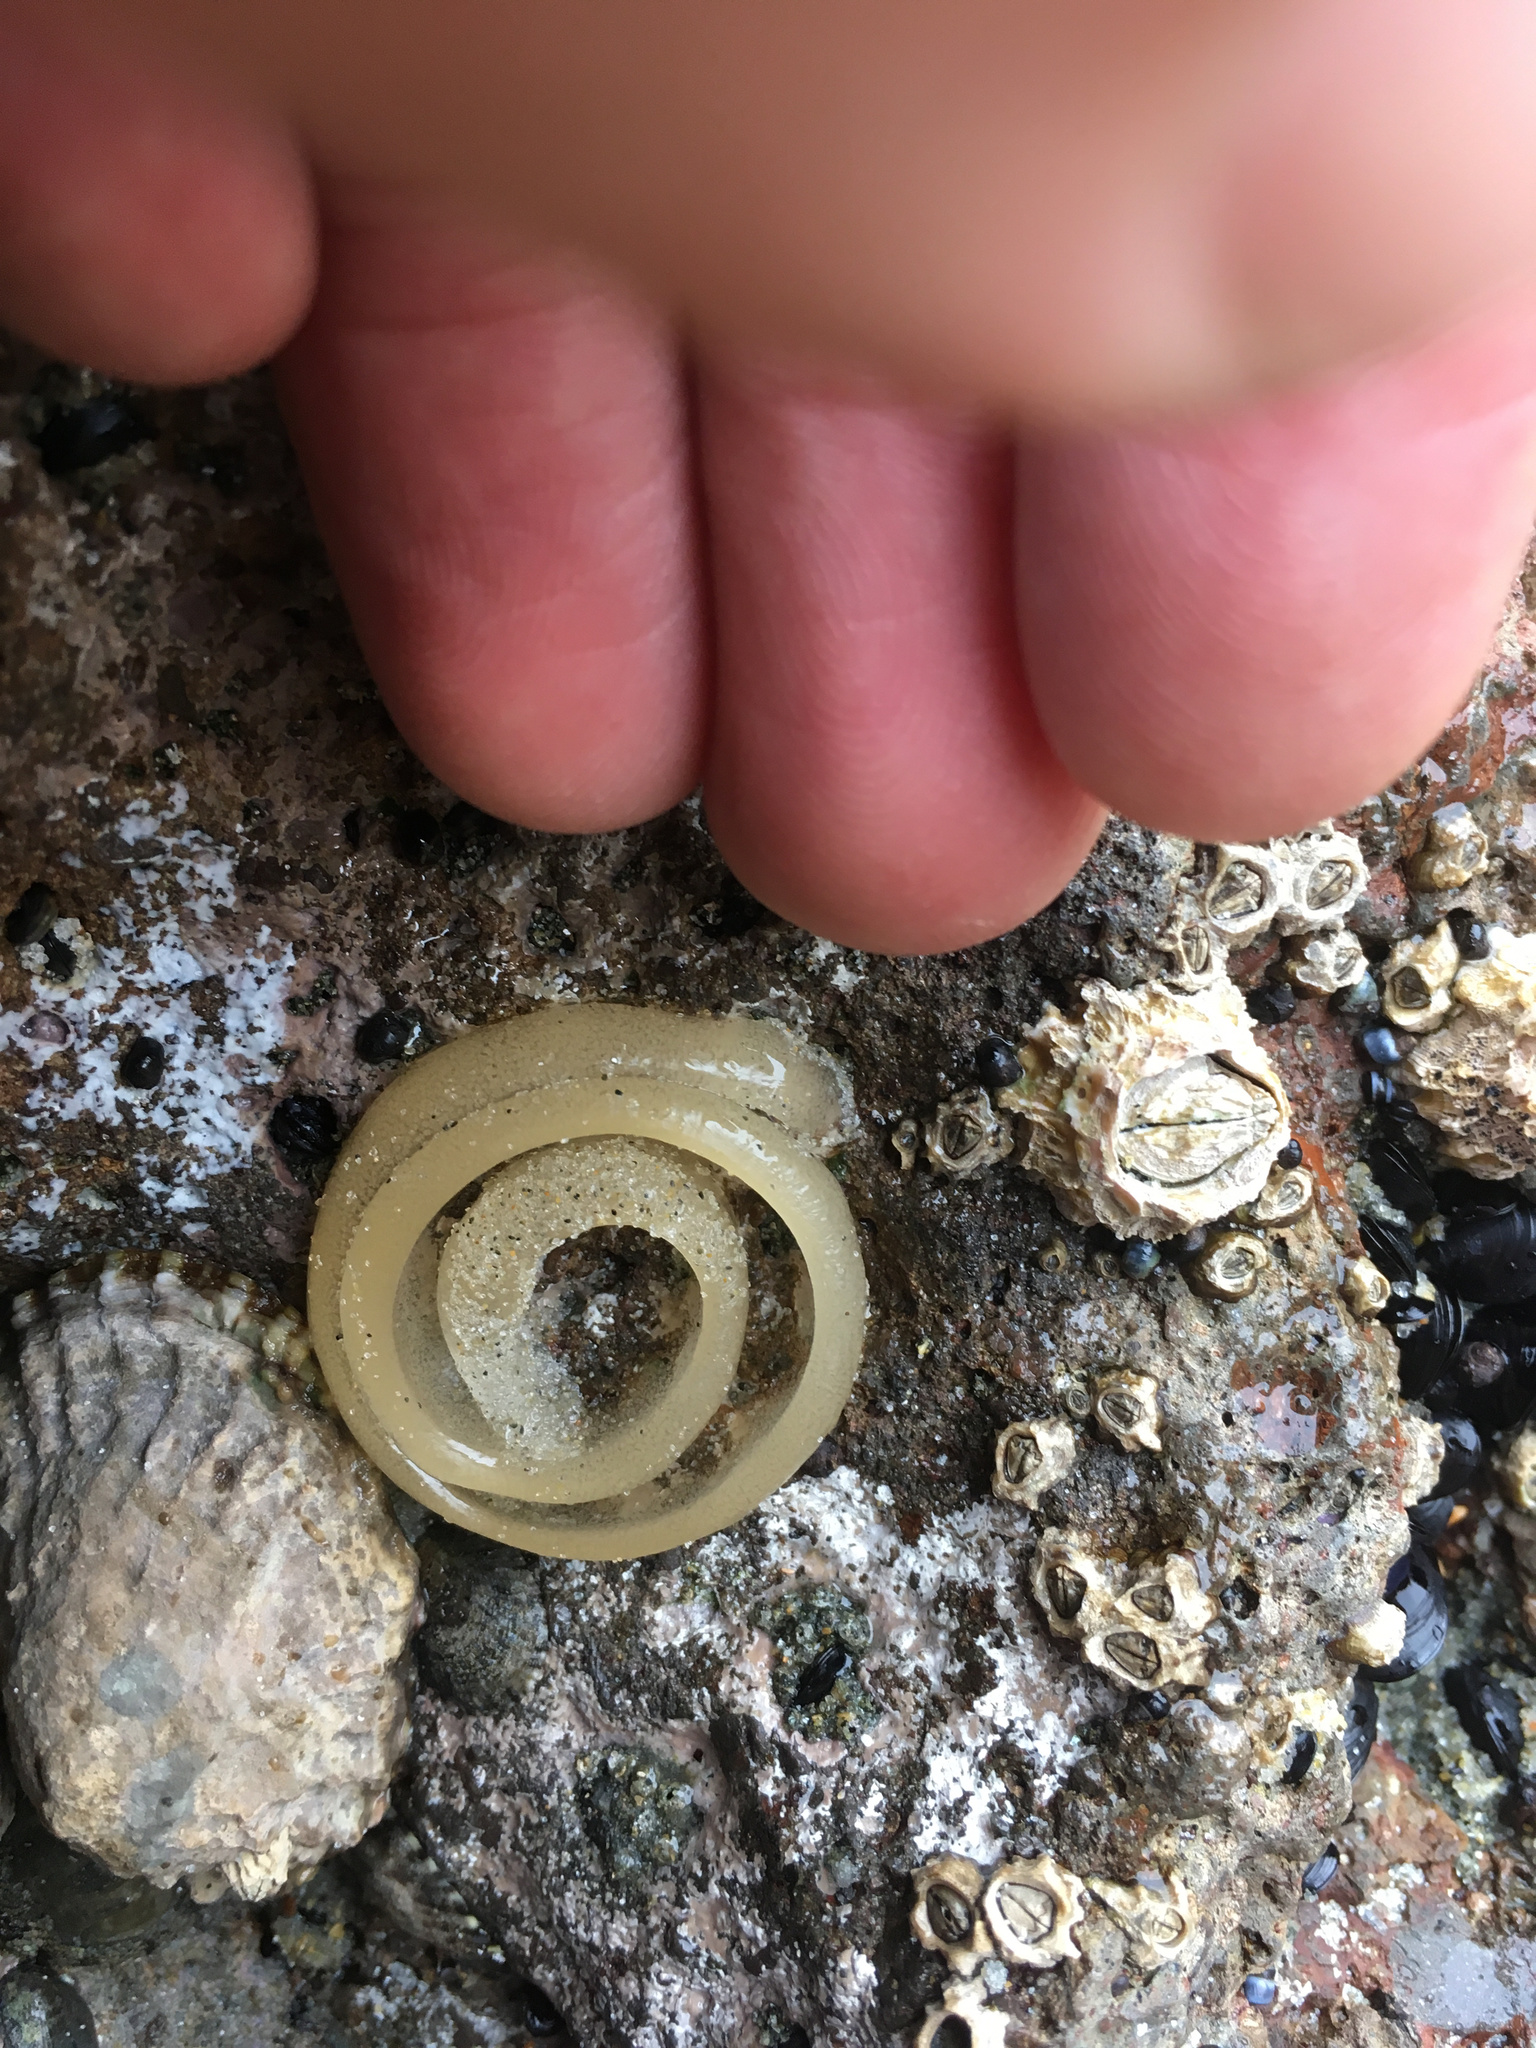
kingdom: Animalia
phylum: Mollusca
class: Gastropoda
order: Siphonariida
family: Siphonariidae
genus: Benhamina
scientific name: Benhamina obliquata
